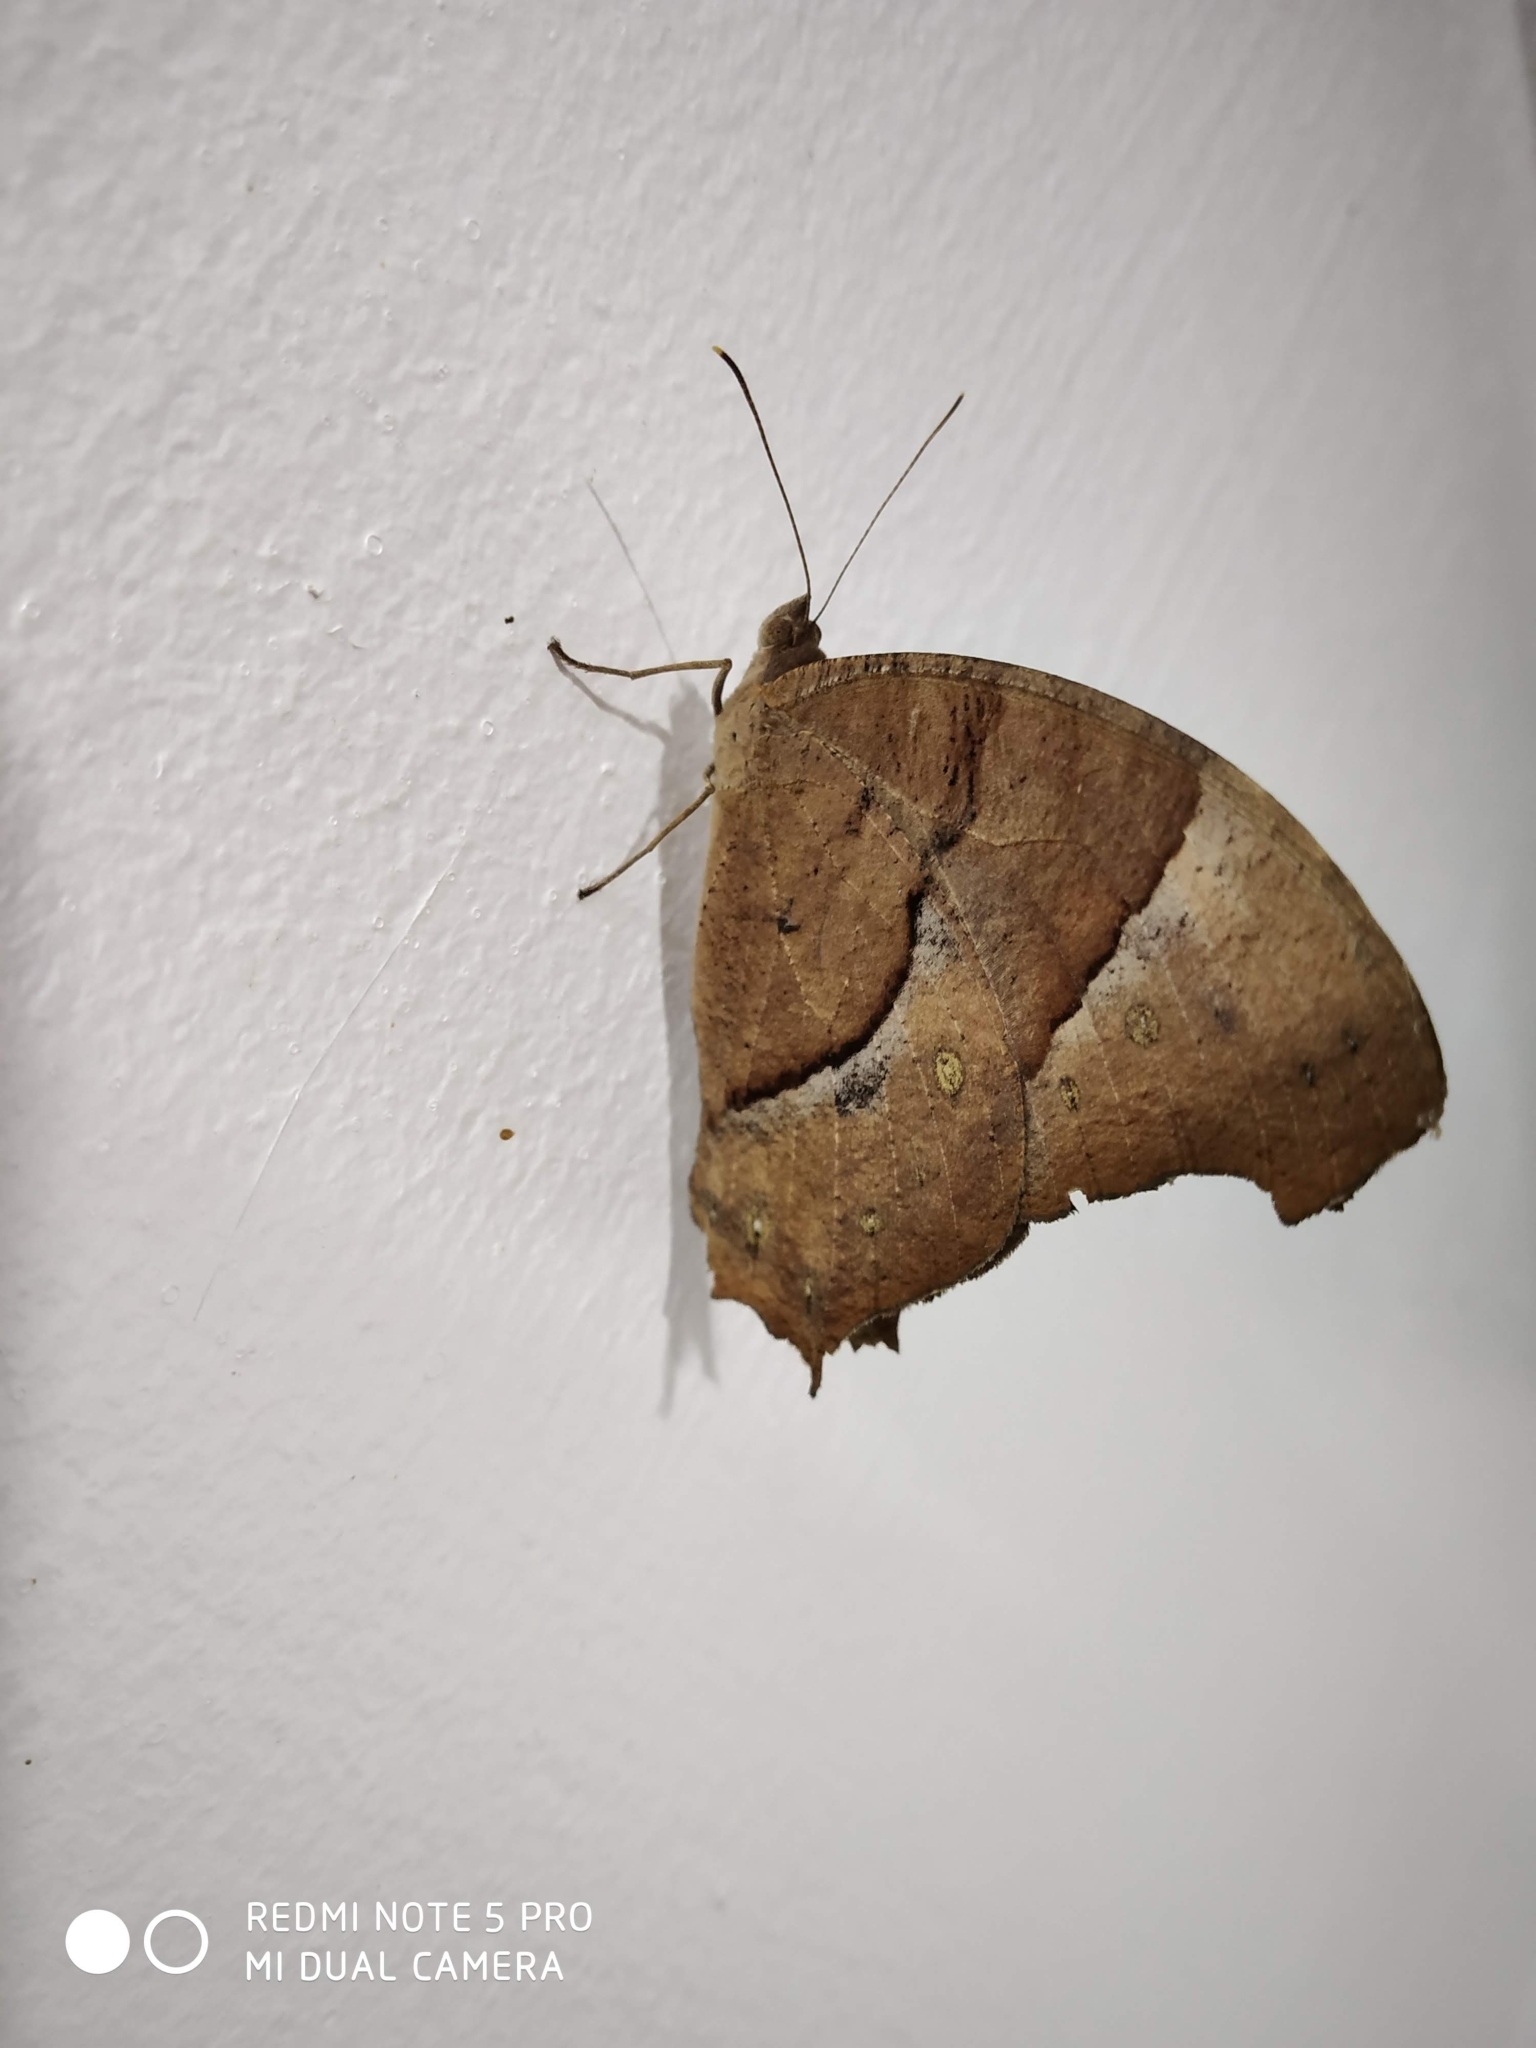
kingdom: Animalia
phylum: Arthropoda
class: Insecta
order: Lepidoptera
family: Nymphalidae
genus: Melanitis
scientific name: Melanitis leda
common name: Twilight brown
